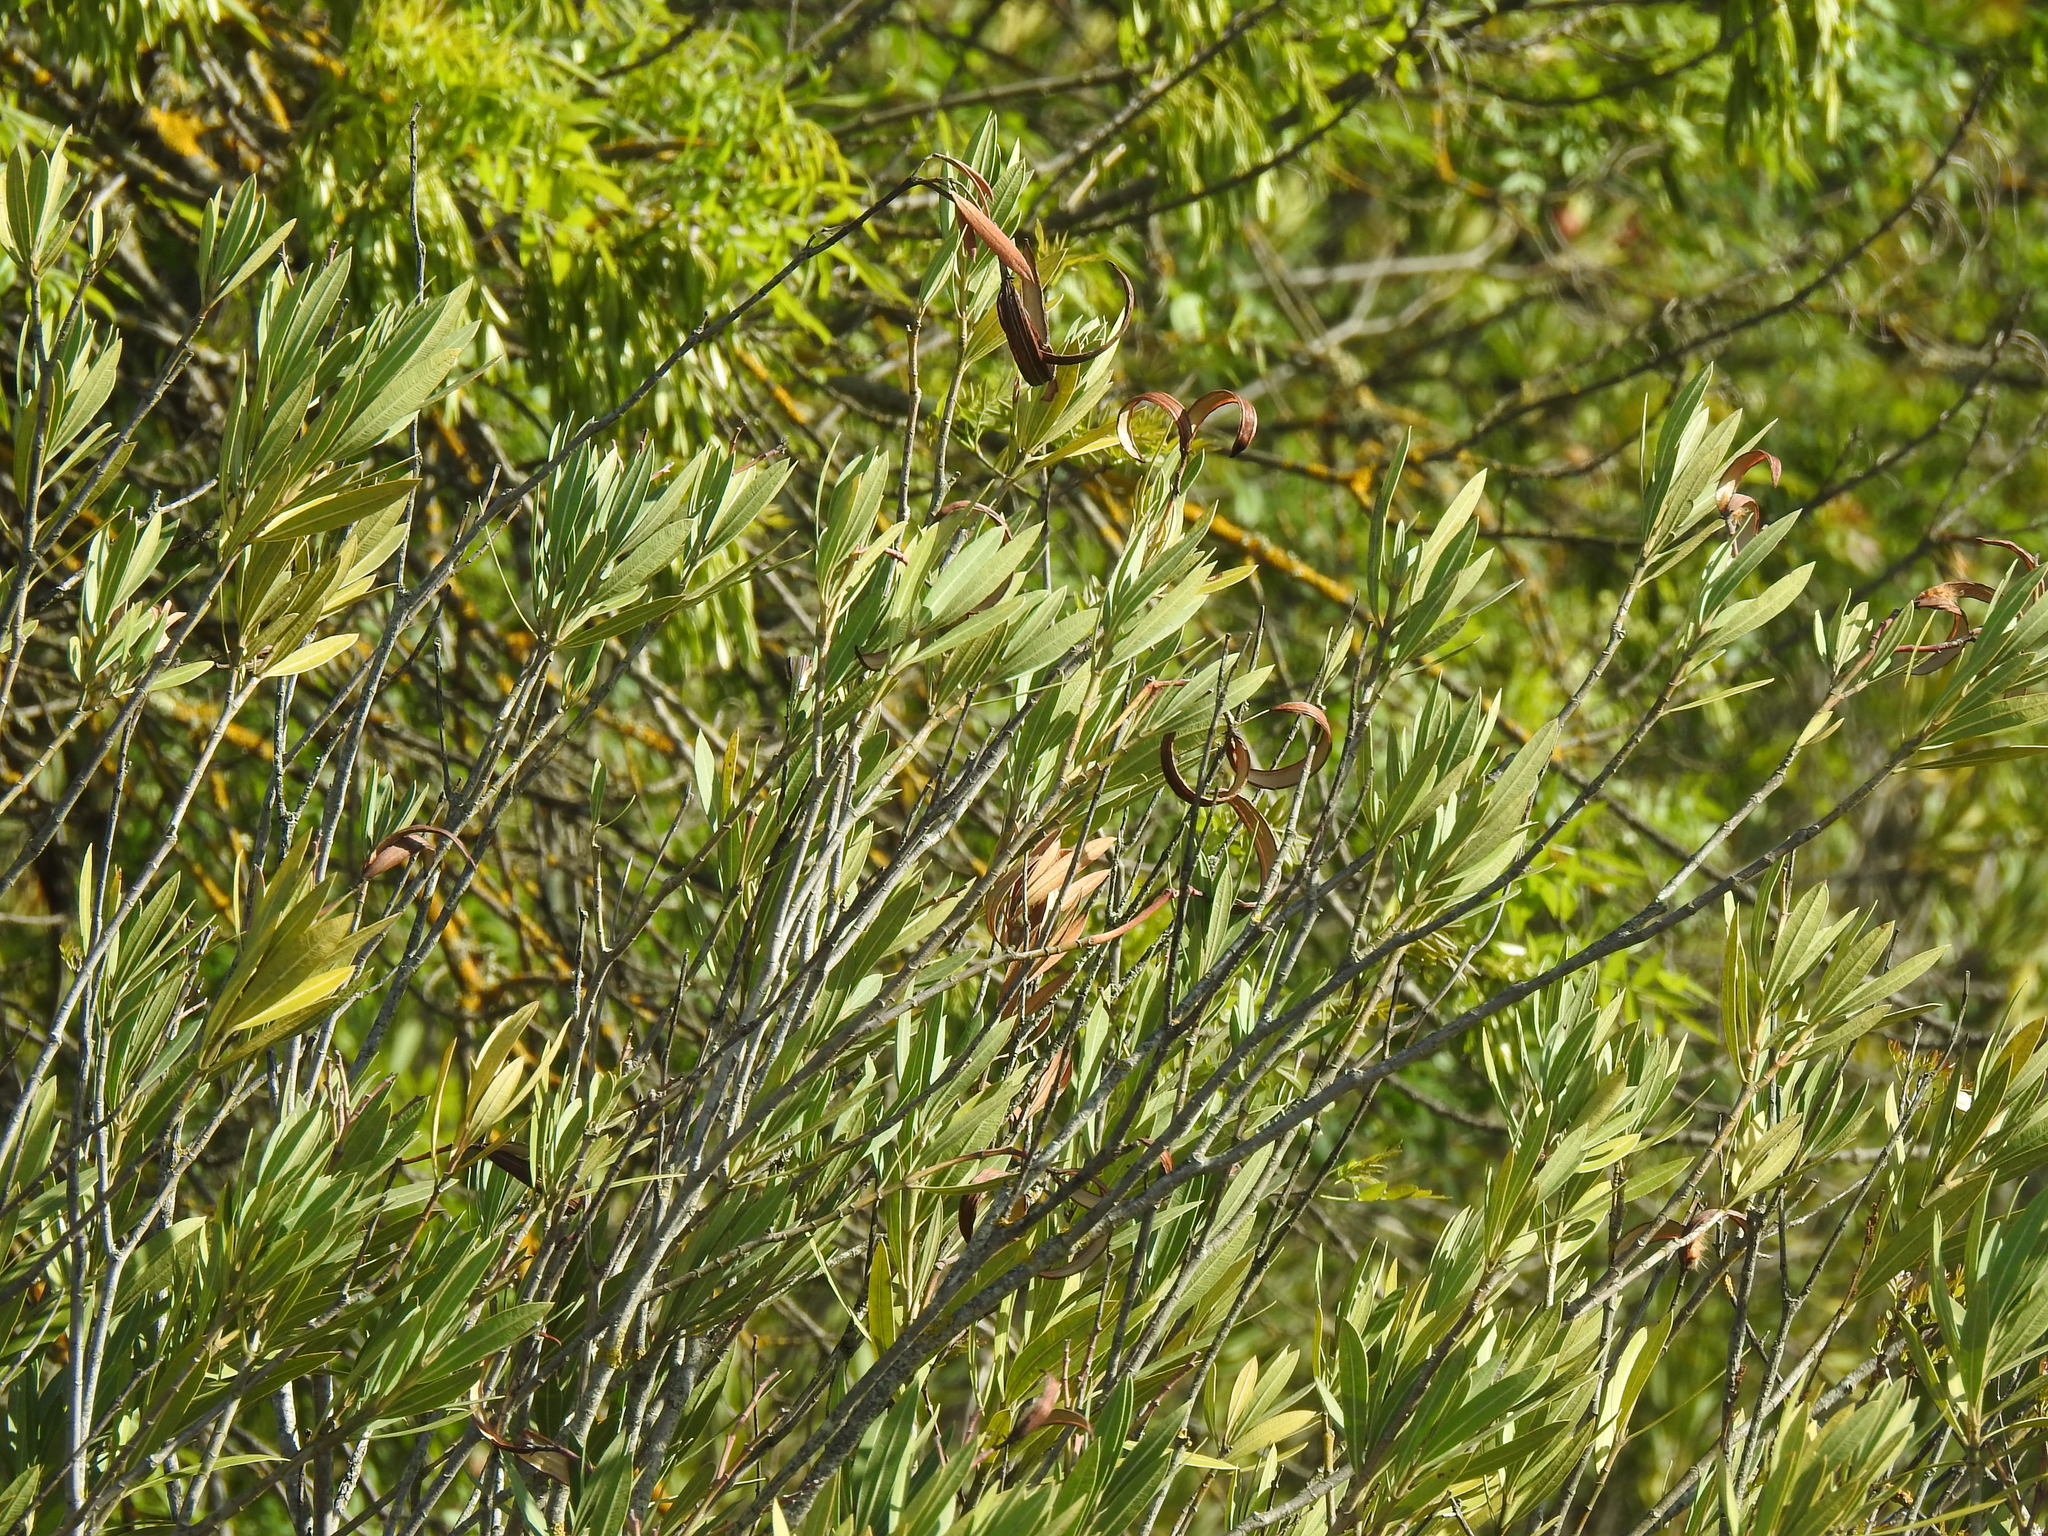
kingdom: Plantae
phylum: Tracheophyta
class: Magnoliopsida
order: Gentianales
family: Apocynaceae
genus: Nerium
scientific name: Nerium oleander
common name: Oleander
